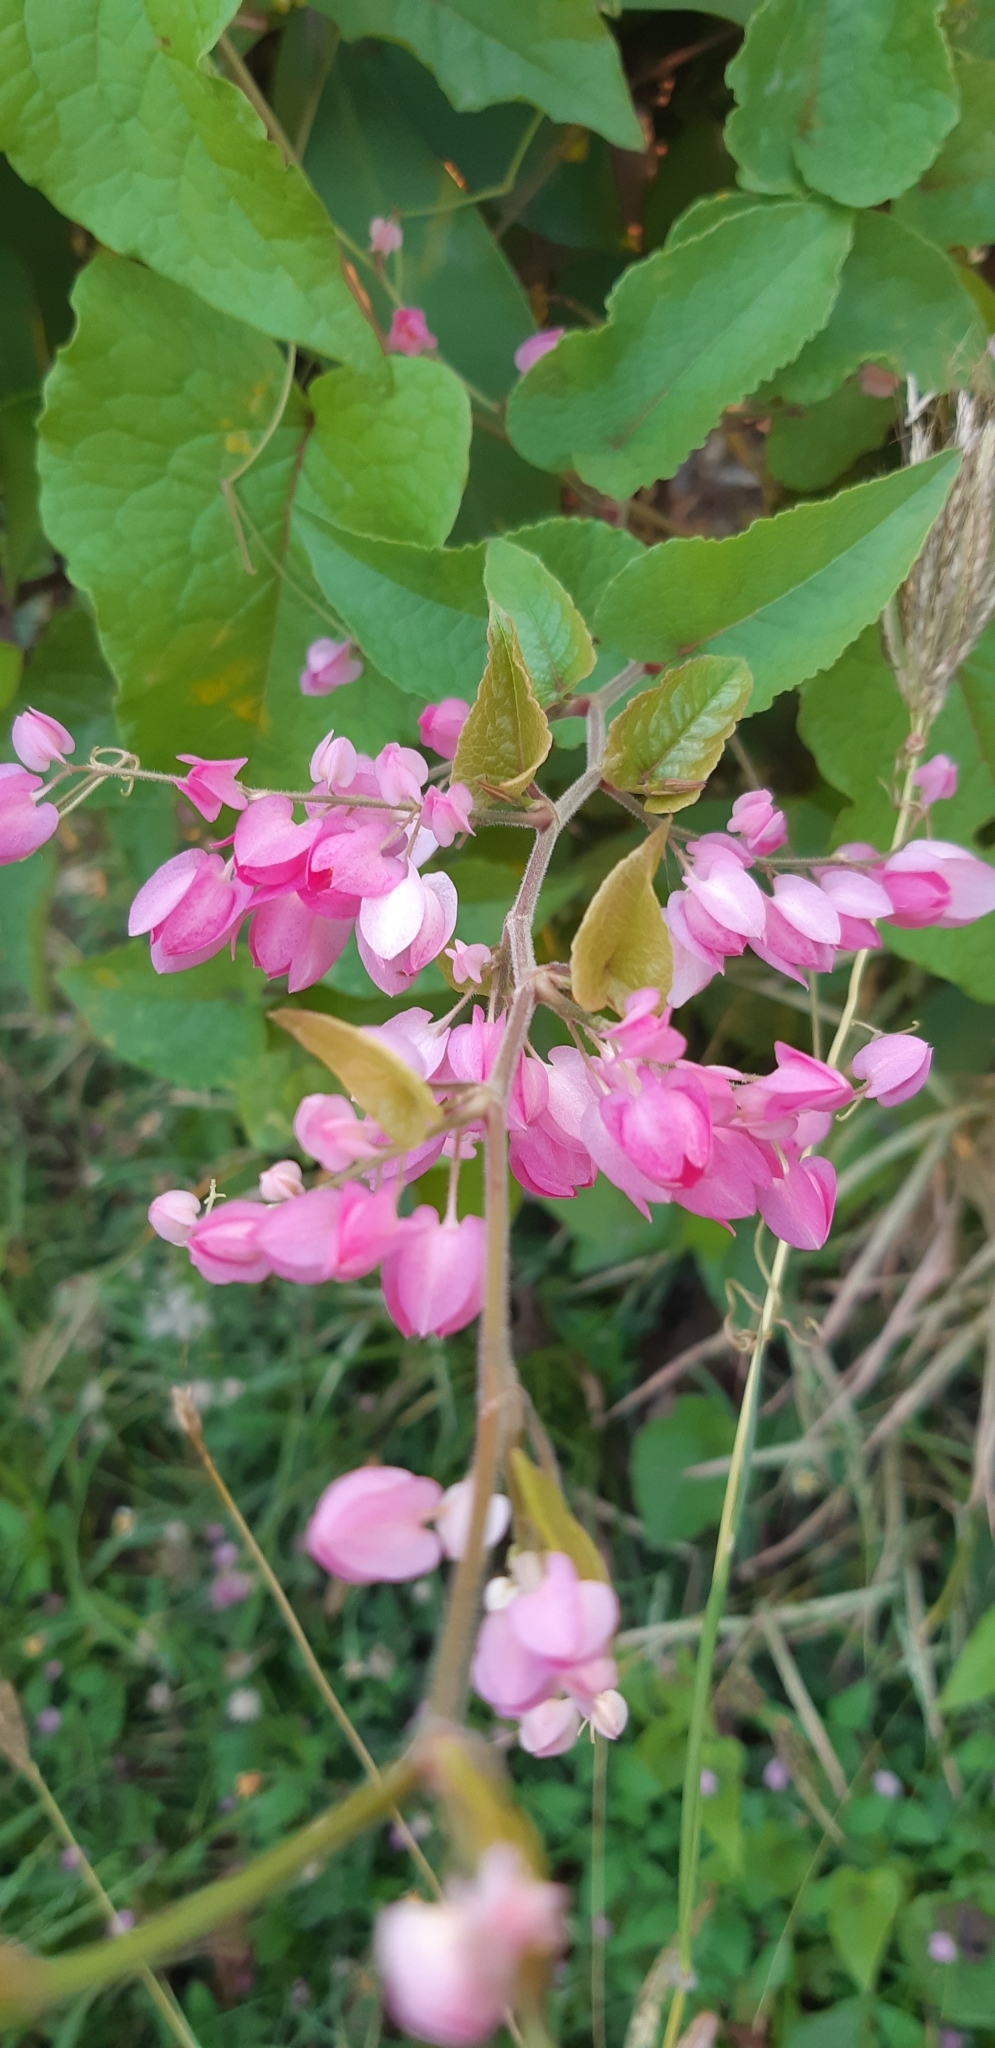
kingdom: Plantae
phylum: Tracheophyta
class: Magnoliopsida
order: Caryophyllales
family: Polygonaceae
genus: Antigonon
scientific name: Antigonon leptopus
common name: Coral vine
